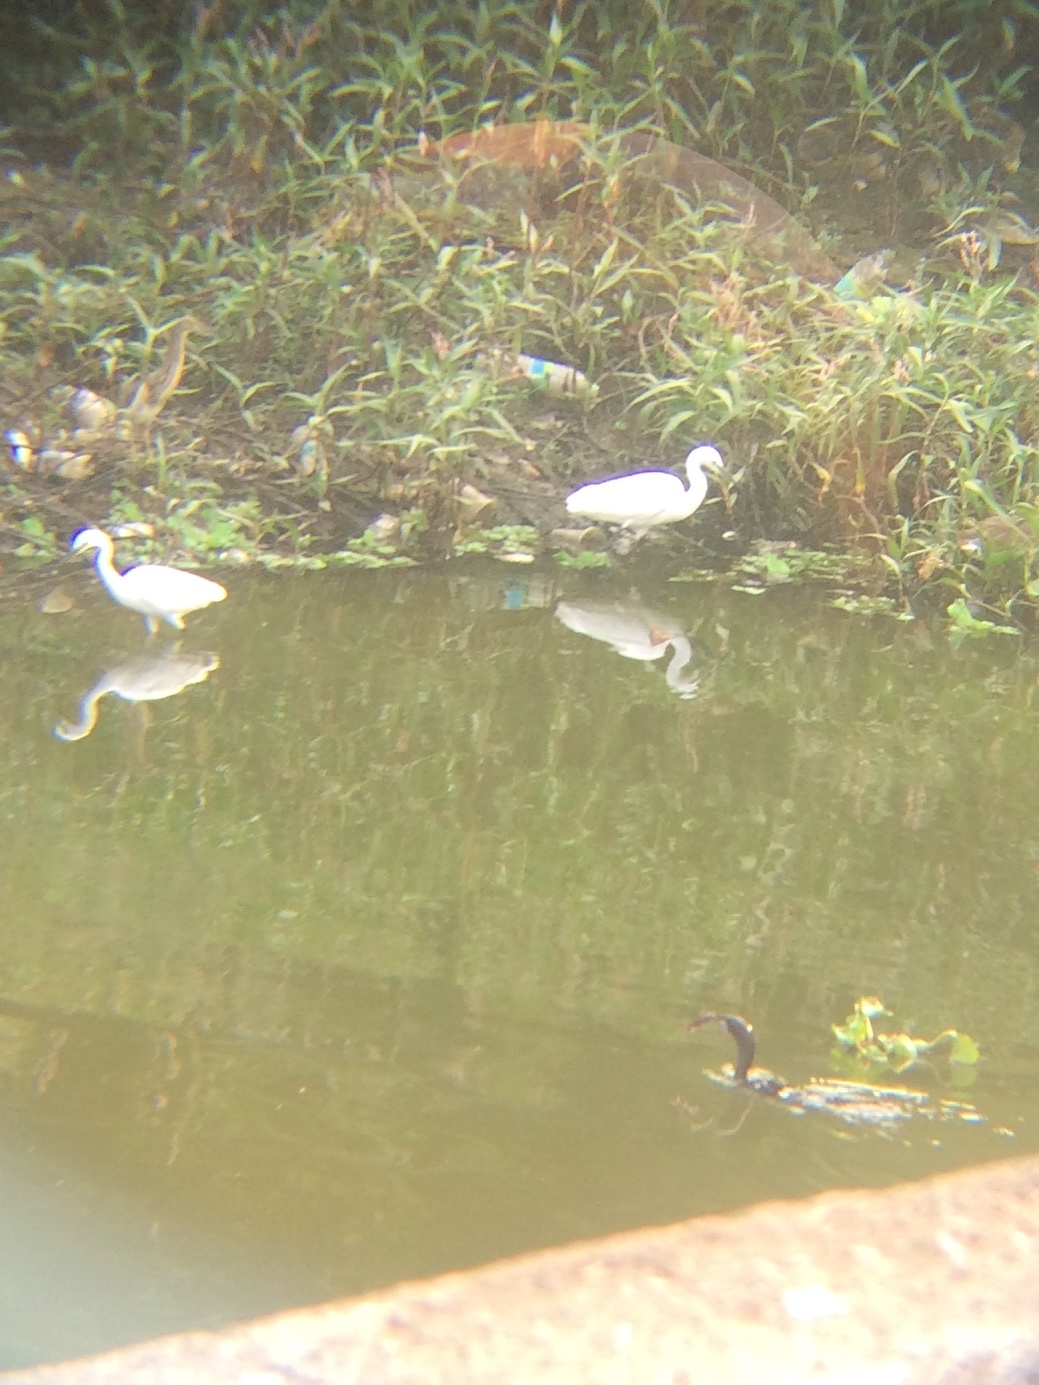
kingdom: Animalia
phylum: Chordata
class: Aves
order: Pelecaniformes
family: Ardeidae
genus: Egretta
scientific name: Egretta garzetta
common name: Little egret
